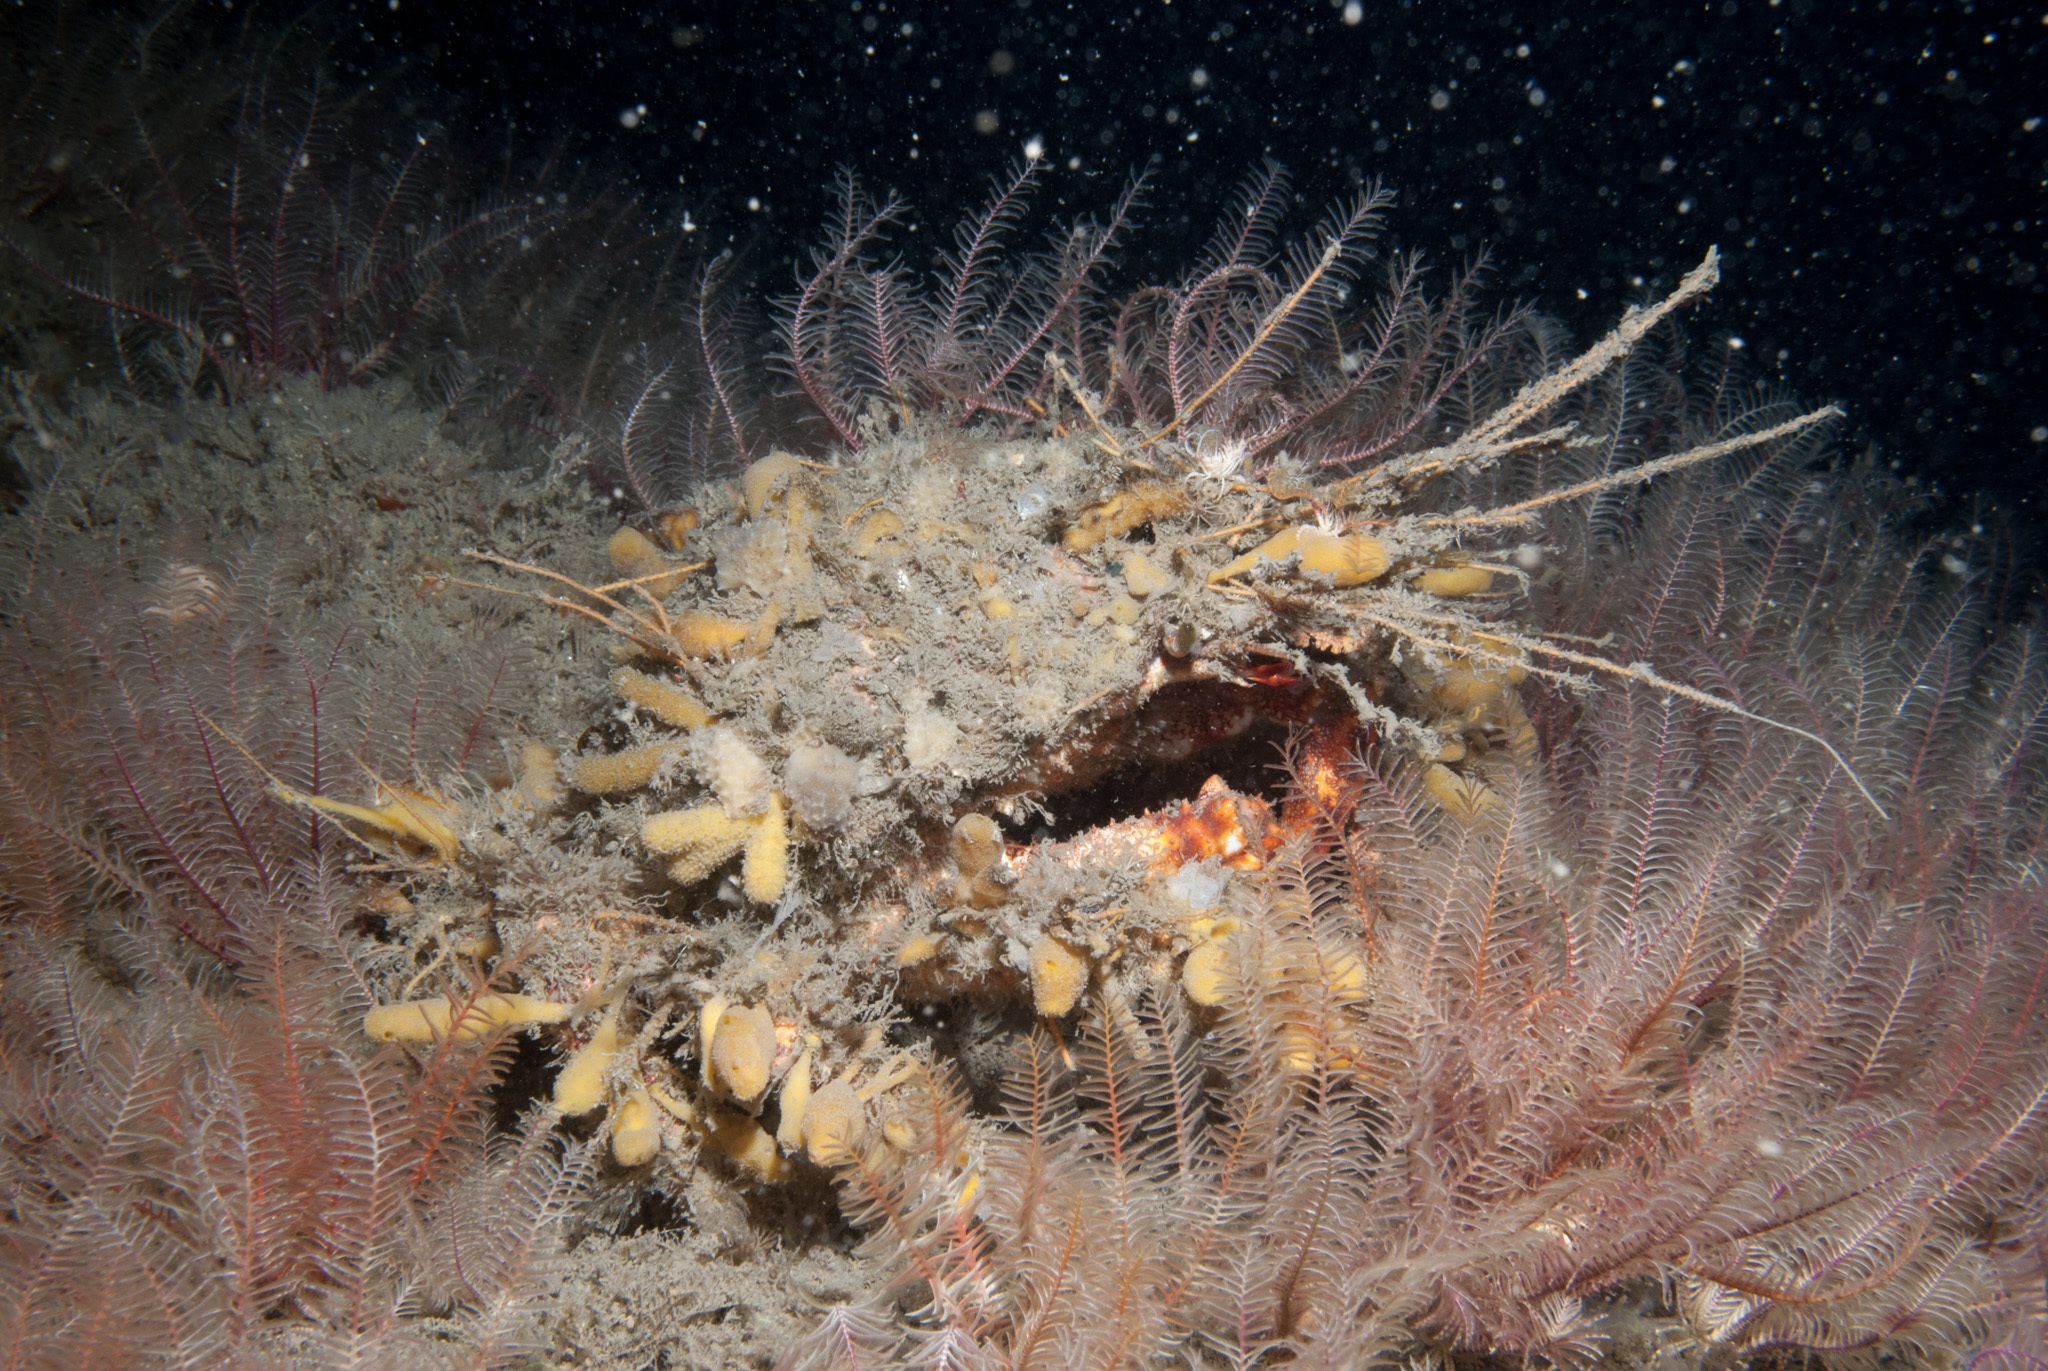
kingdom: Animalia
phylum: Arthropoda
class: Malacostraca
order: Decapoda
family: Majidae
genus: Maja
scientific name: Maja brachydactyla
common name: Common spider crab
